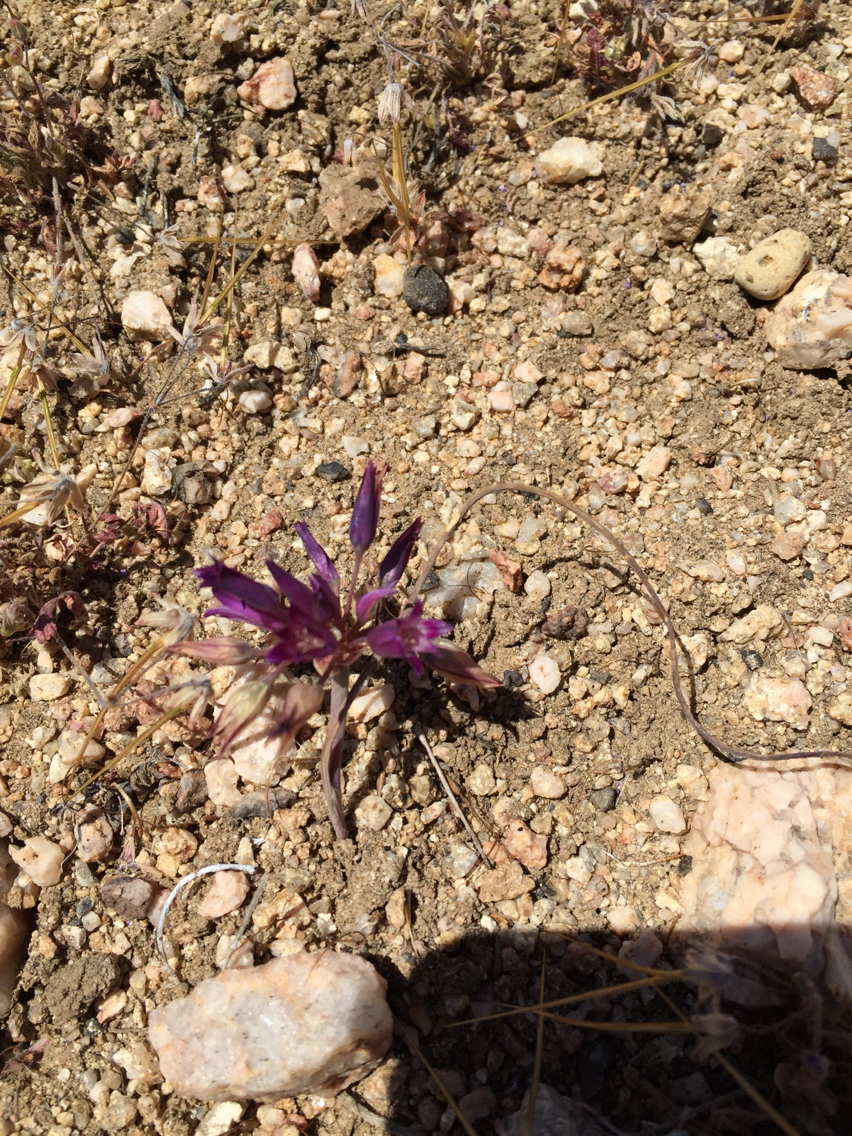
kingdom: Plantae
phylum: Tracheophyta
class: Liliopsida
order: Asparagales
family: Amaryllidaceae
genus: Allium
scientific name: Allium fimbriatum
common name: Fringed onion
